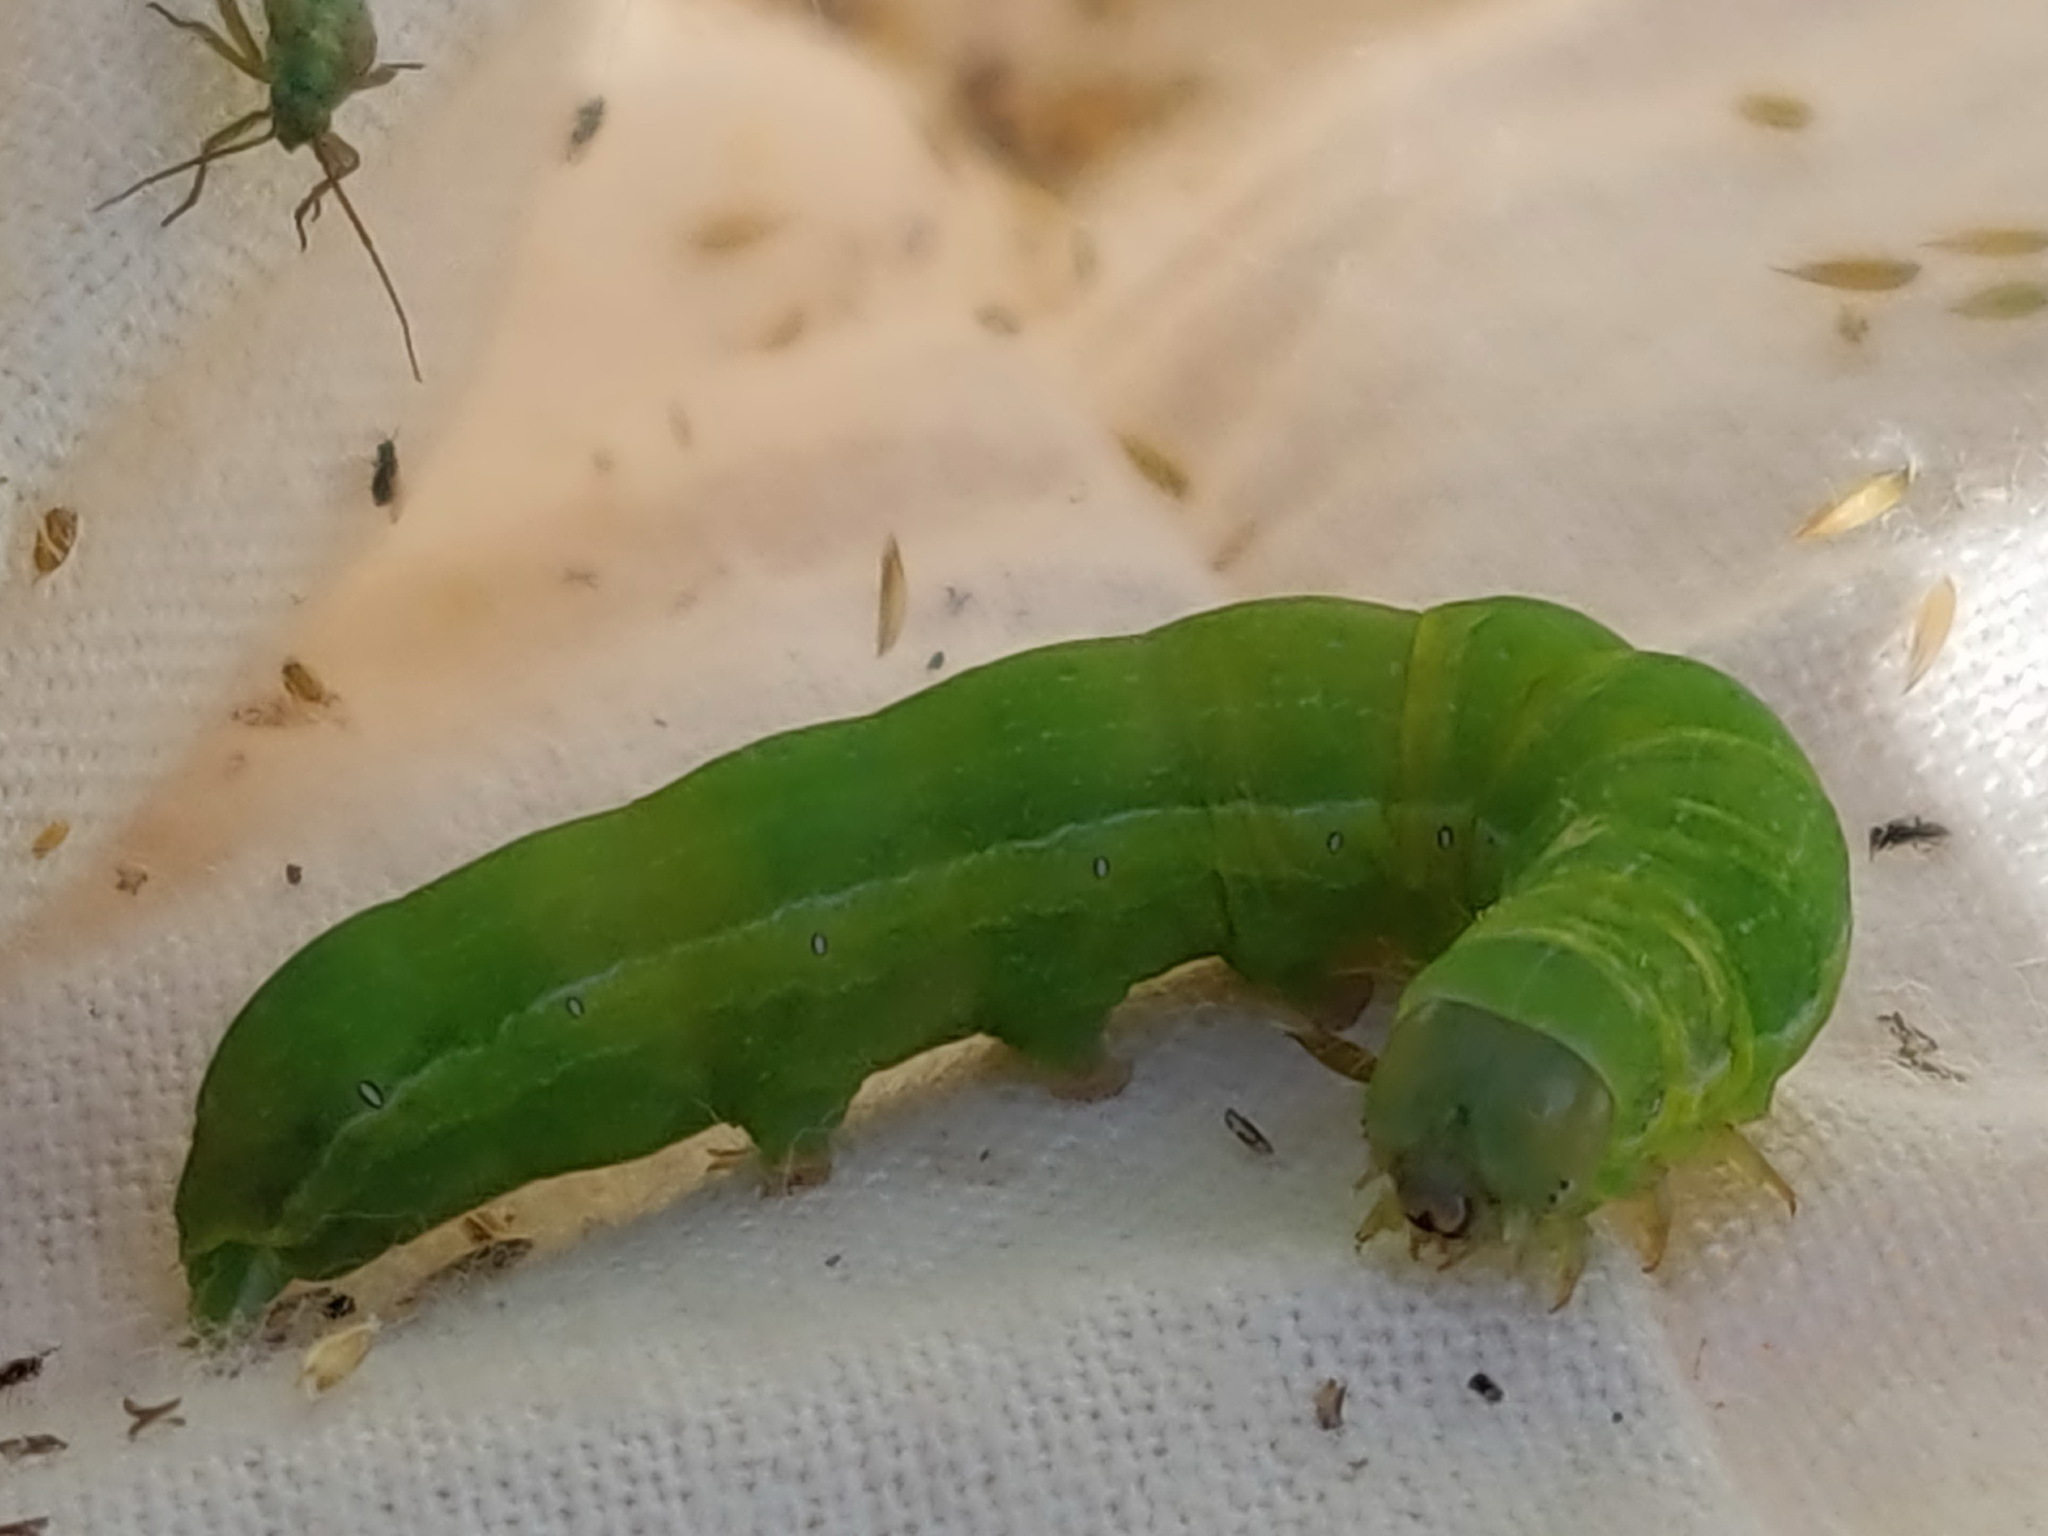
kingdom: Animalia
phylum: Arthropoda
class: Insecta
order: Lepidoptera
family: Noctuidae
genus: Phlogophora
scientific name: Phlogophora meticulosa
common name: Angle shades
